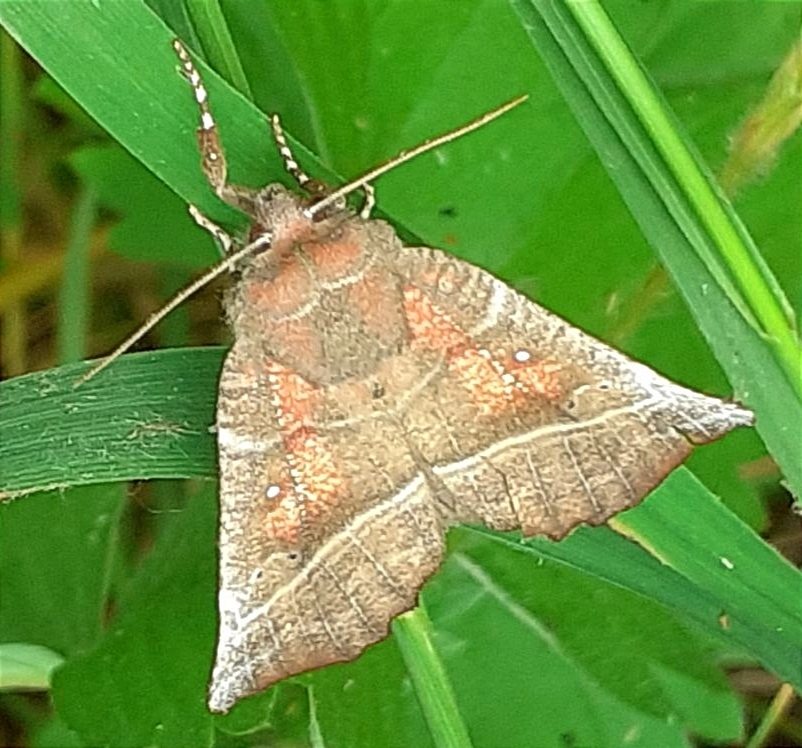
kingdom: Animalia
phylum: Arthropoda
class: Insecta
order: Lepidoptera
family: Erebidae
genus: Scoliopteryx
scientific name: Scoliopteryx libatrix
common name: Herald
